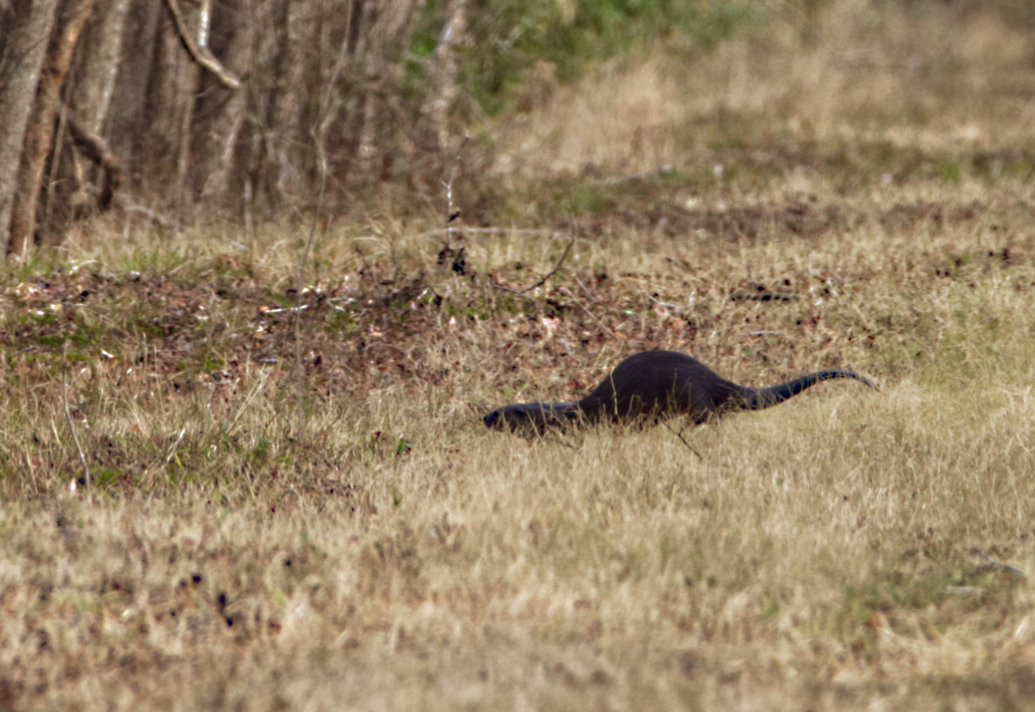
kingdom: Animalia
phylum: Chordata
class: Mammalia
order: Carnivora
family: Mustelidae
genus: Lontra
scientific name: Lontra canadensis
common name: North american river otter
